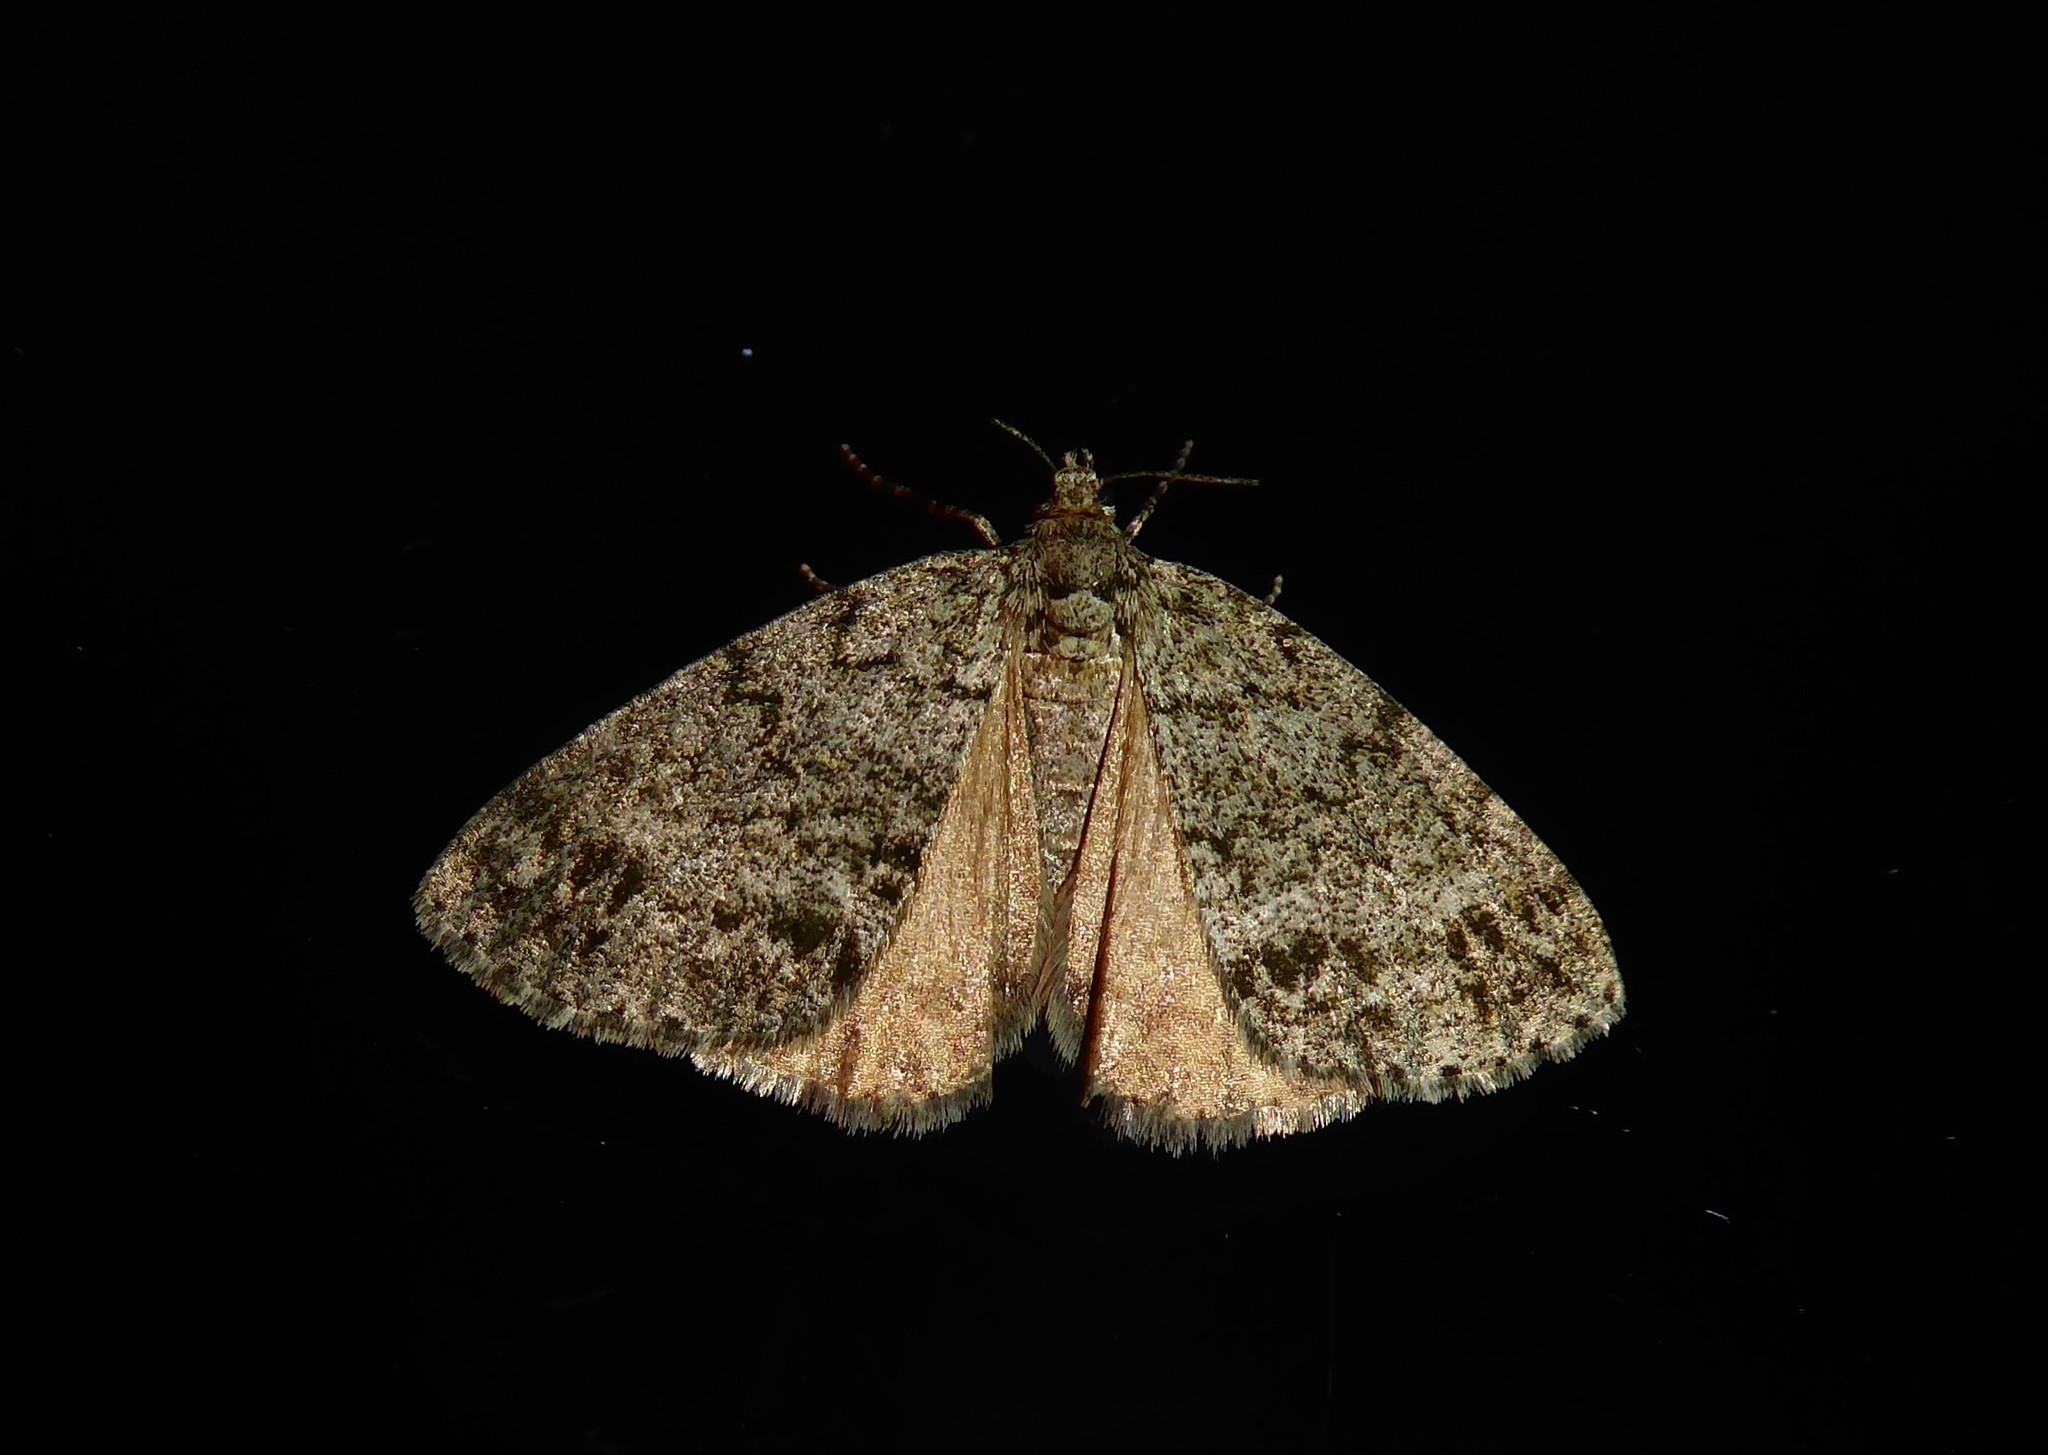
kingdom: Animalia
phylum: Arthropoda
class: Insecta
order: Lepidoptera
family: Geometridae
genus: Pseudocoremia
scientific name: Pseudocoremia indistincta
